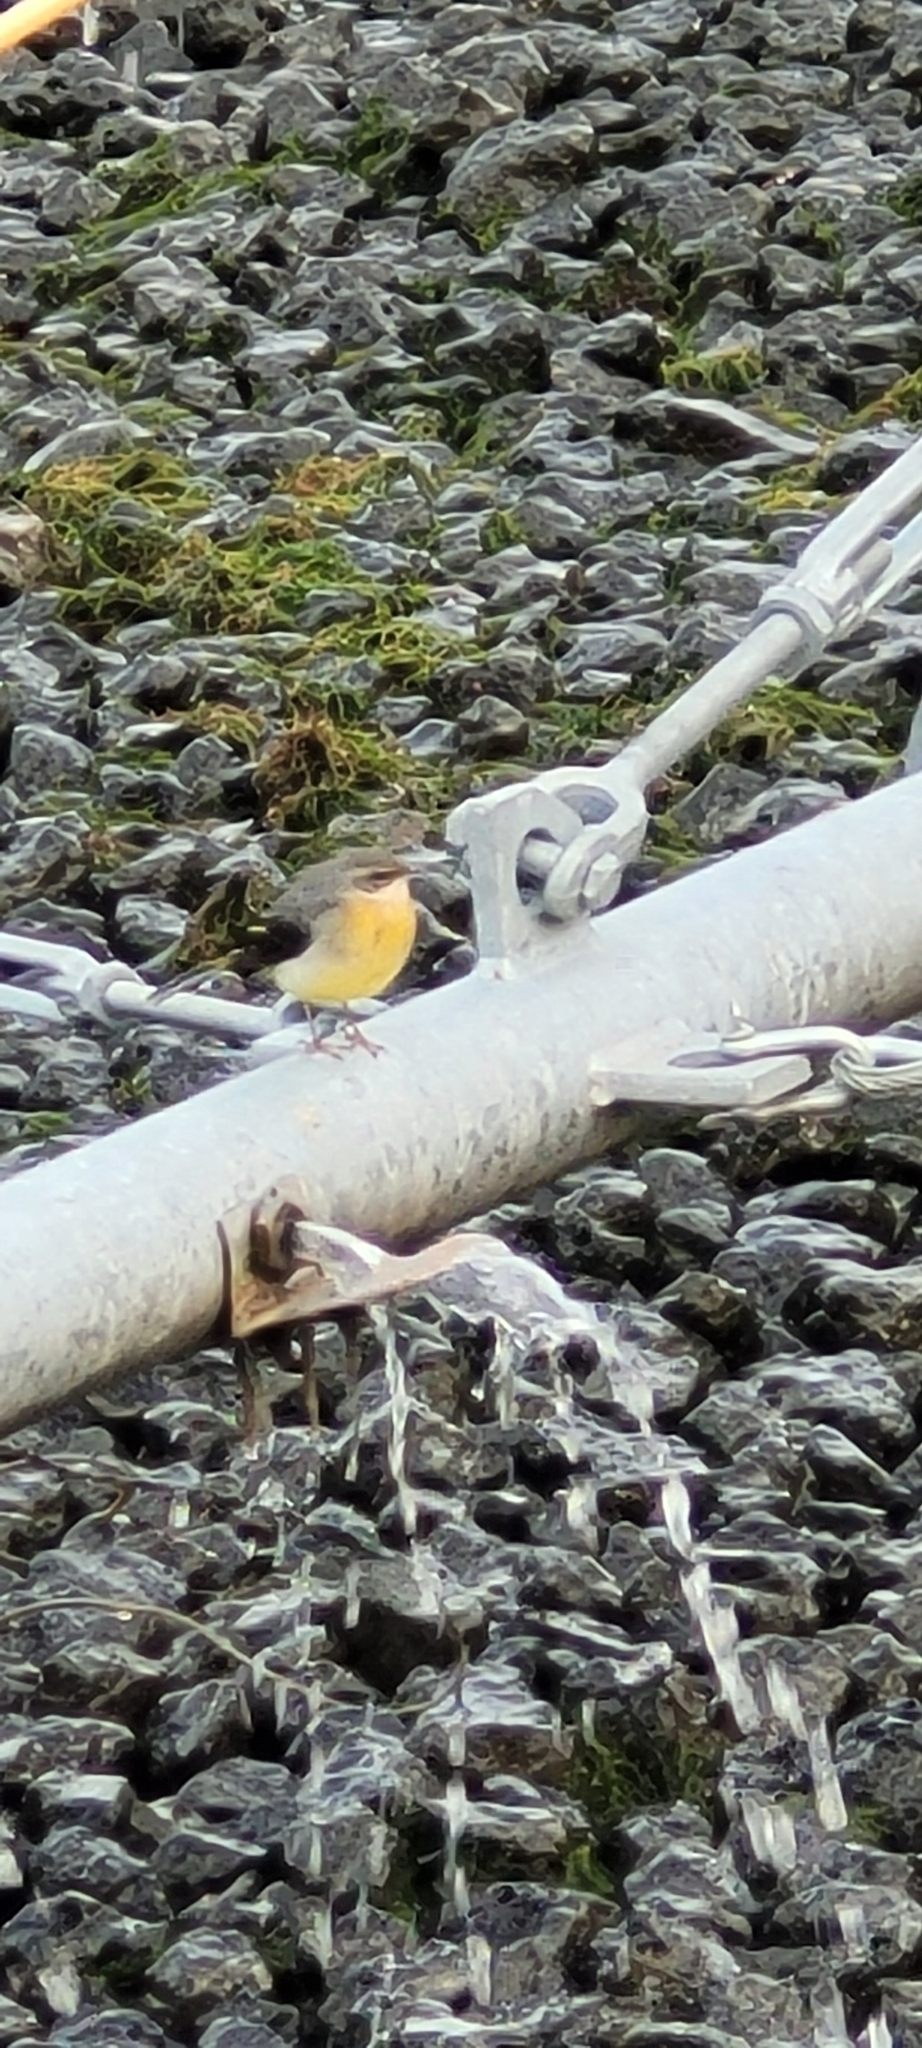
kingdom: Animalia
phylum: Chordata
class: Aves
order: Passeriformes
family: Motacillidae
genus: Motacilla
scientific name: Motacilla cinerea
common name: Grey wagtail
